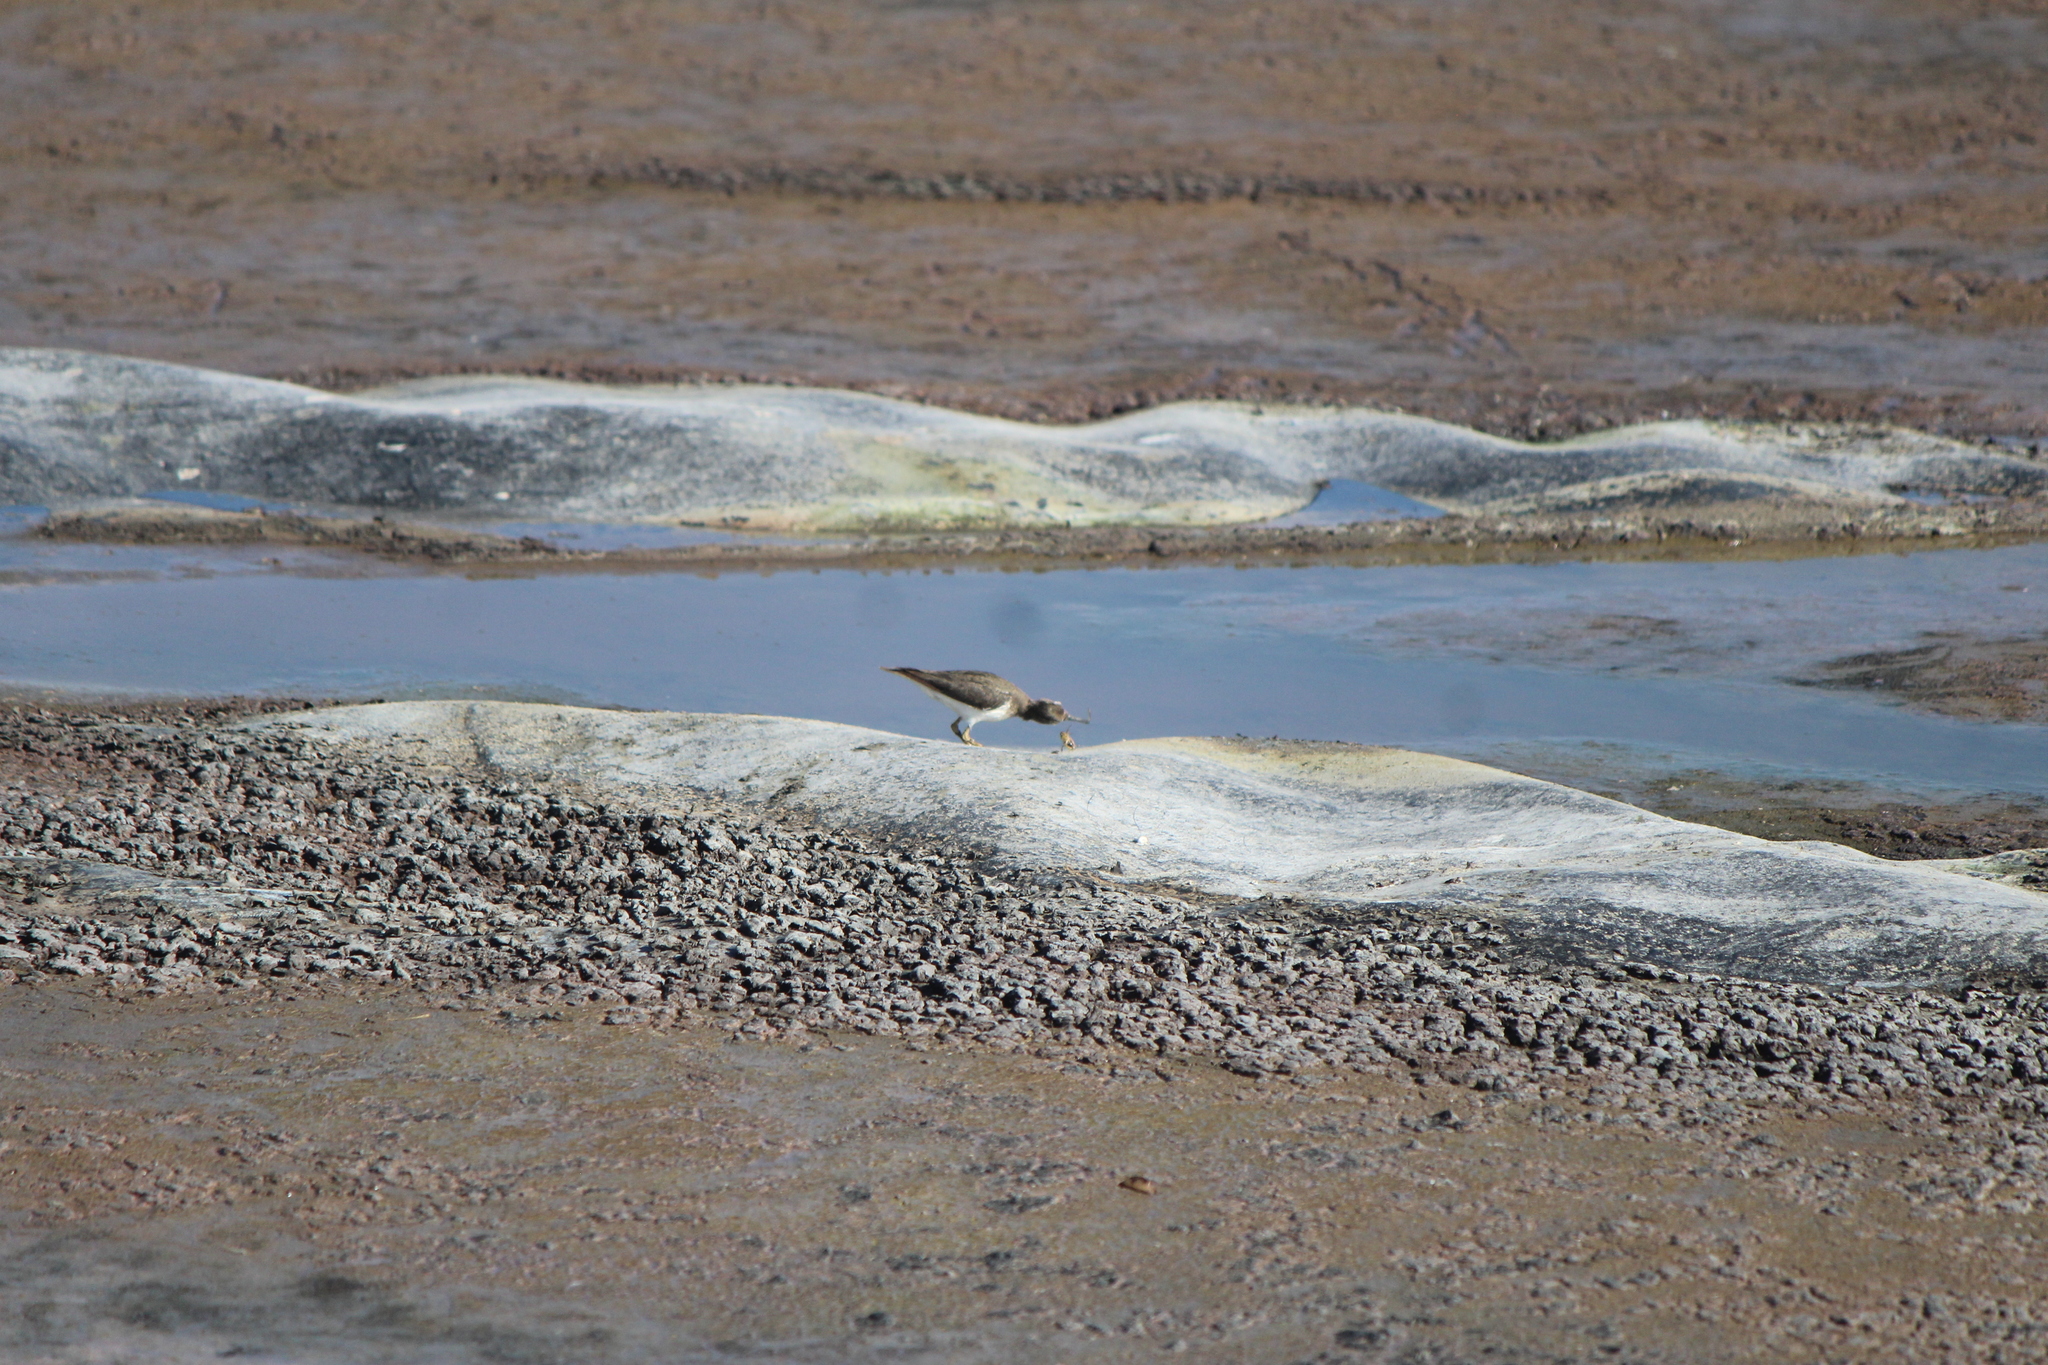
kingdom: Animalia
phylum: Chordata
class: Aves
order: Charadriiformes
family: Scolopacidae
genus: Actitis
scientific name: Actitis macularius
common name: Spotted sandpiper
